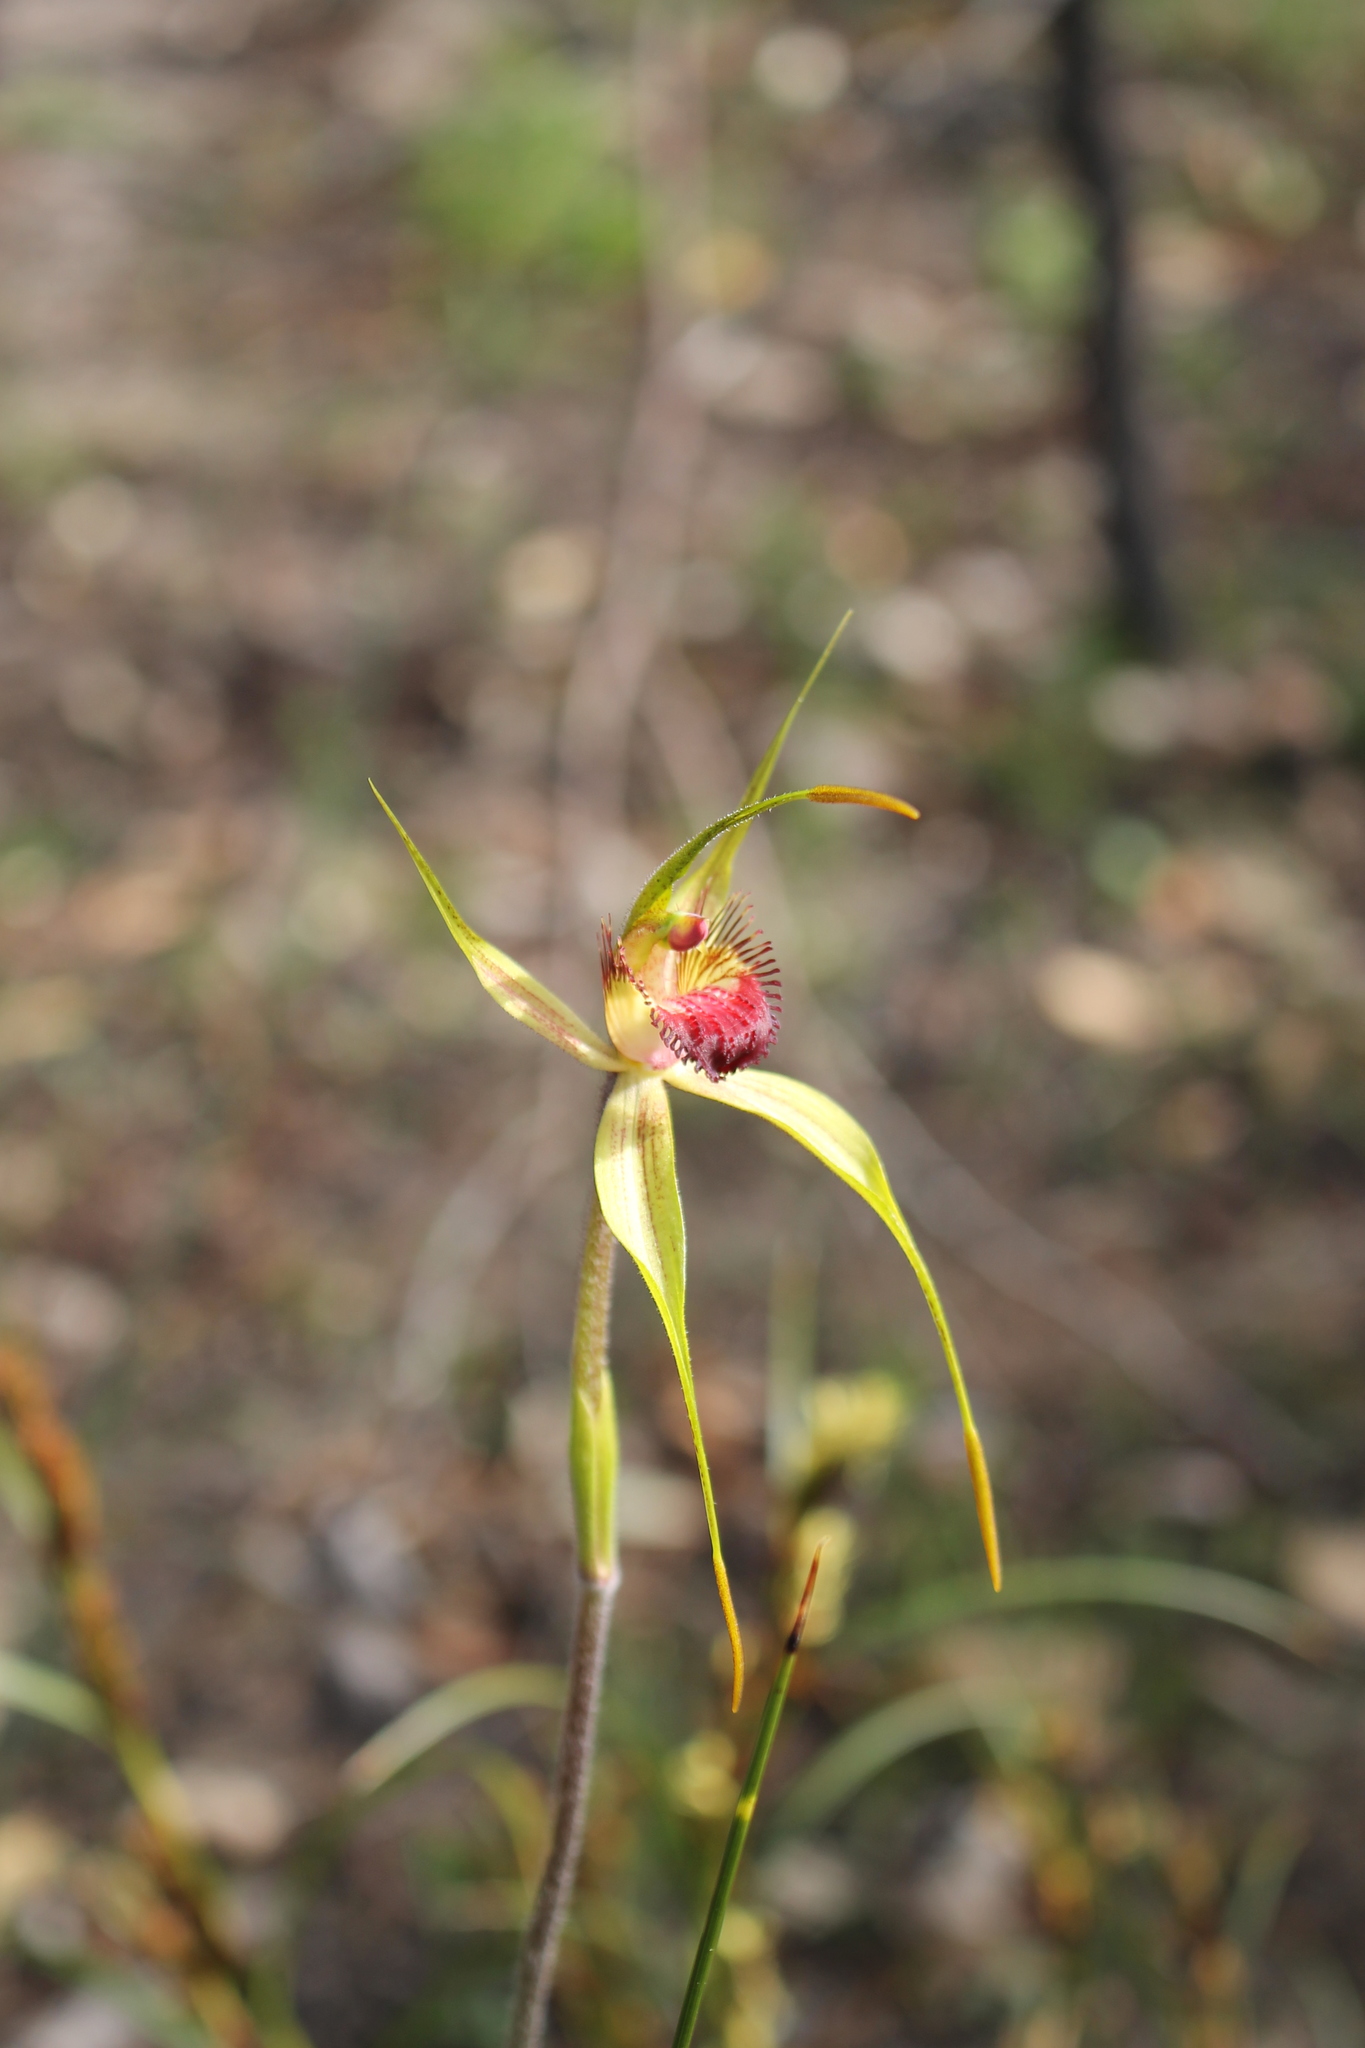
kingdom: Plantae
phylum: Tracheophyta
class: Liliopsida
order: Asparagales
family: Orchidaceae
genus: Caladenia
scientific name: Caladenia pectinata
